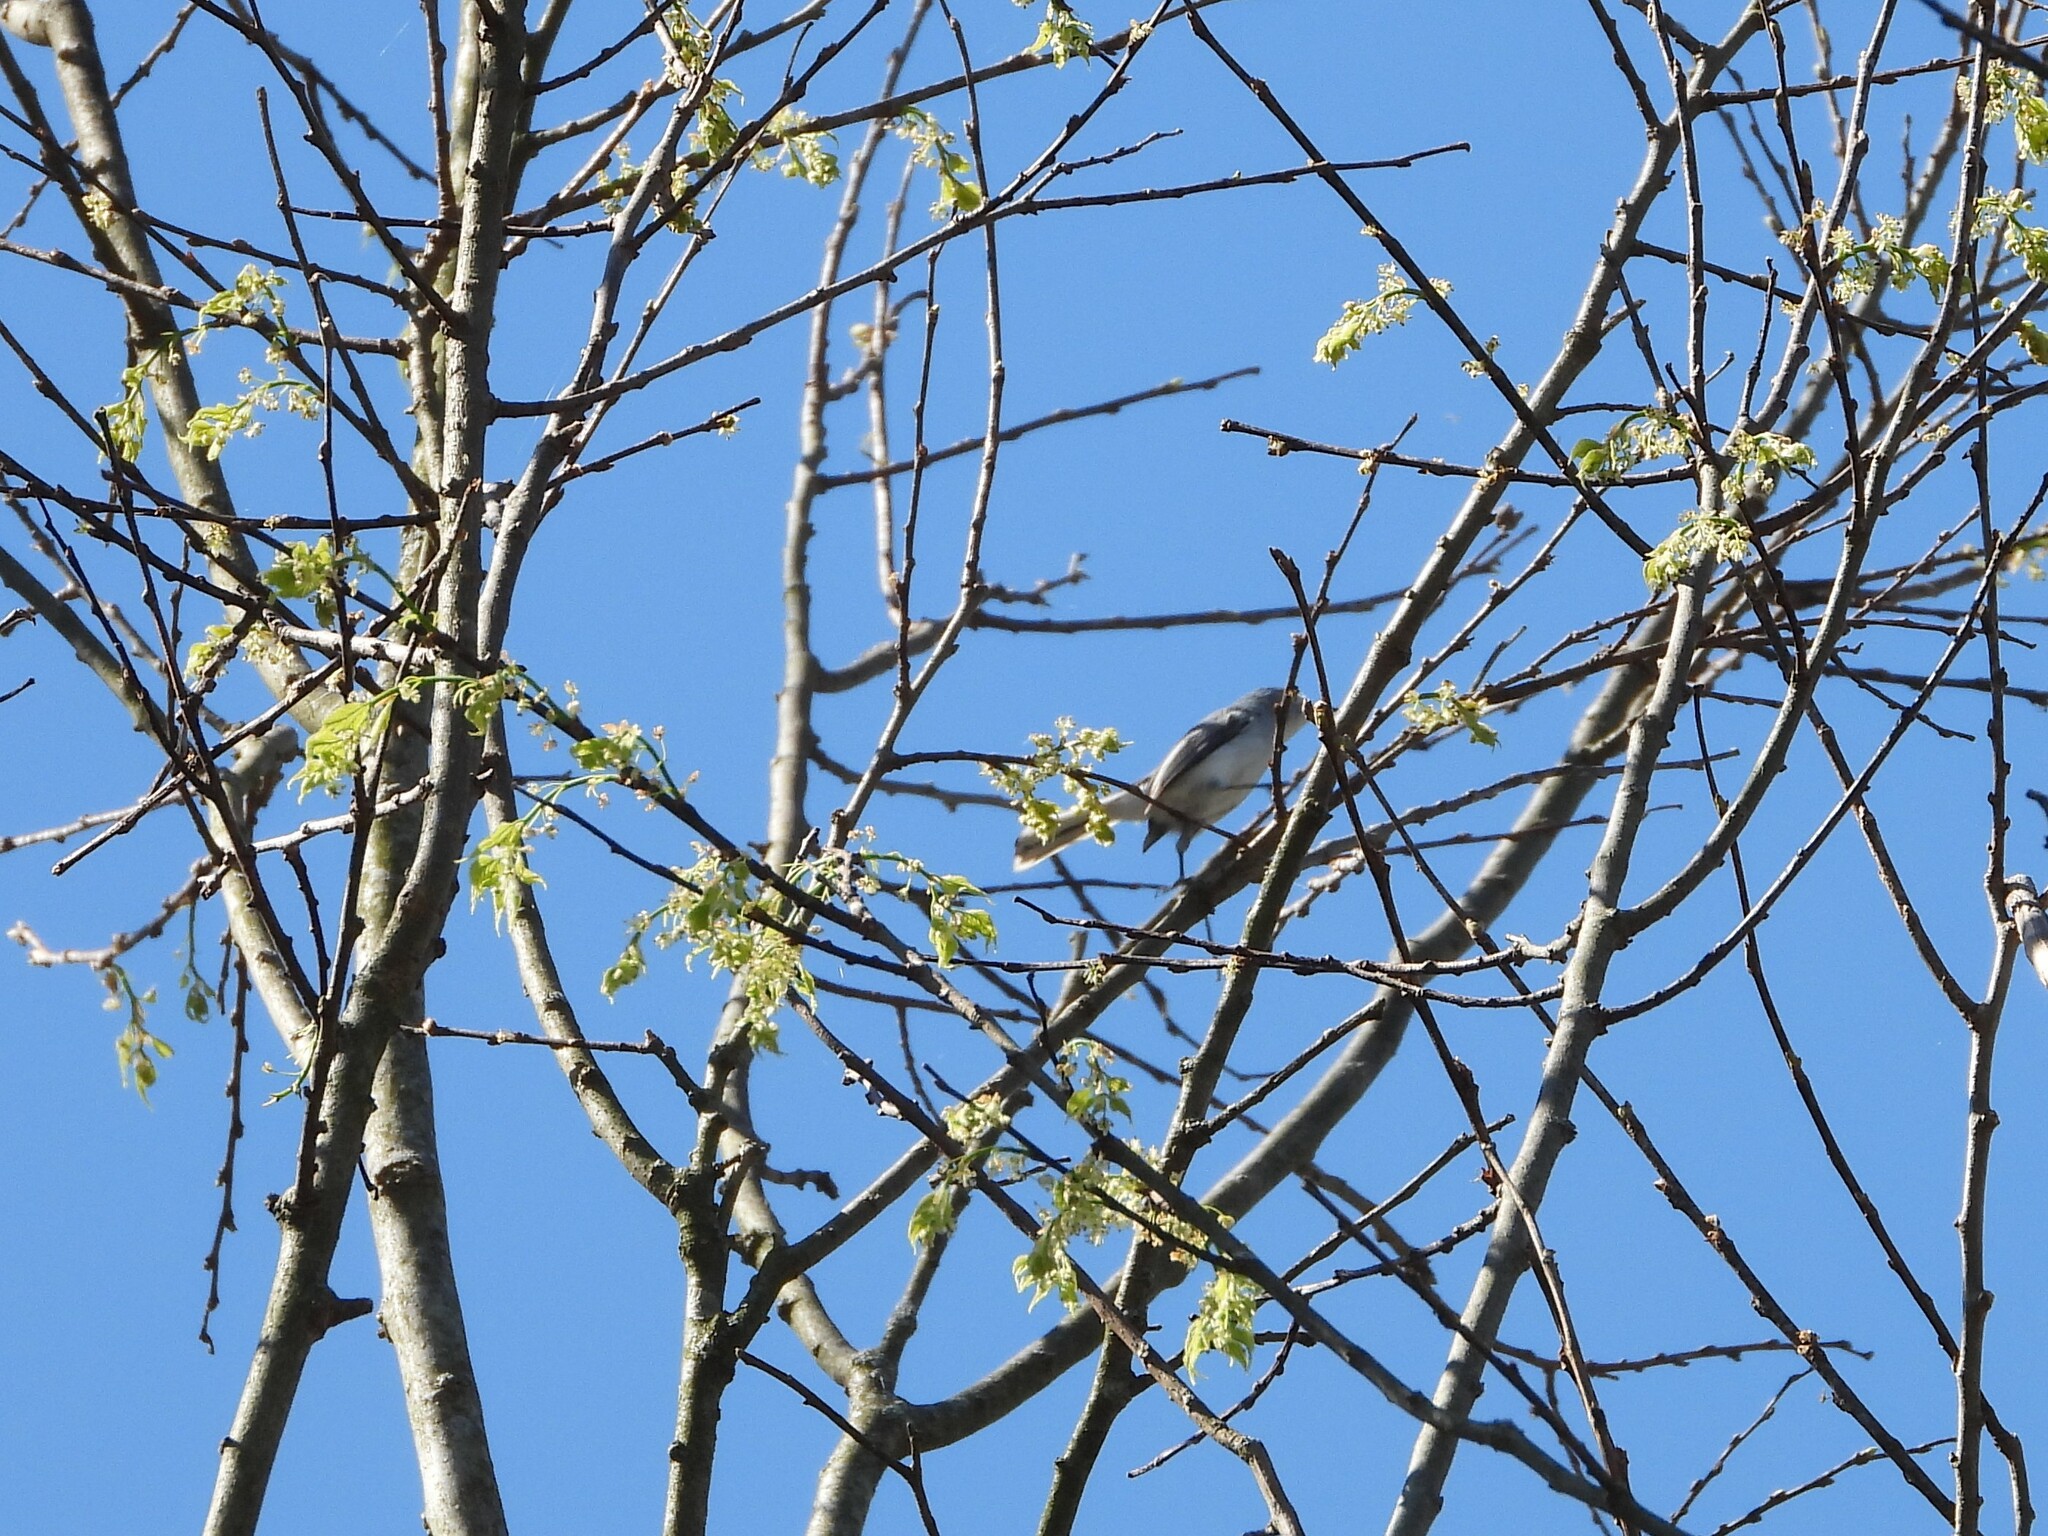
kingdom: Animalia
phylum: Chordata
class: Aves
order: Passeriformes
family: Polioptilidae
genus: Polioptila
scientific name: Polioptila caerulea
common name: Blue-gray gnatcatcher
